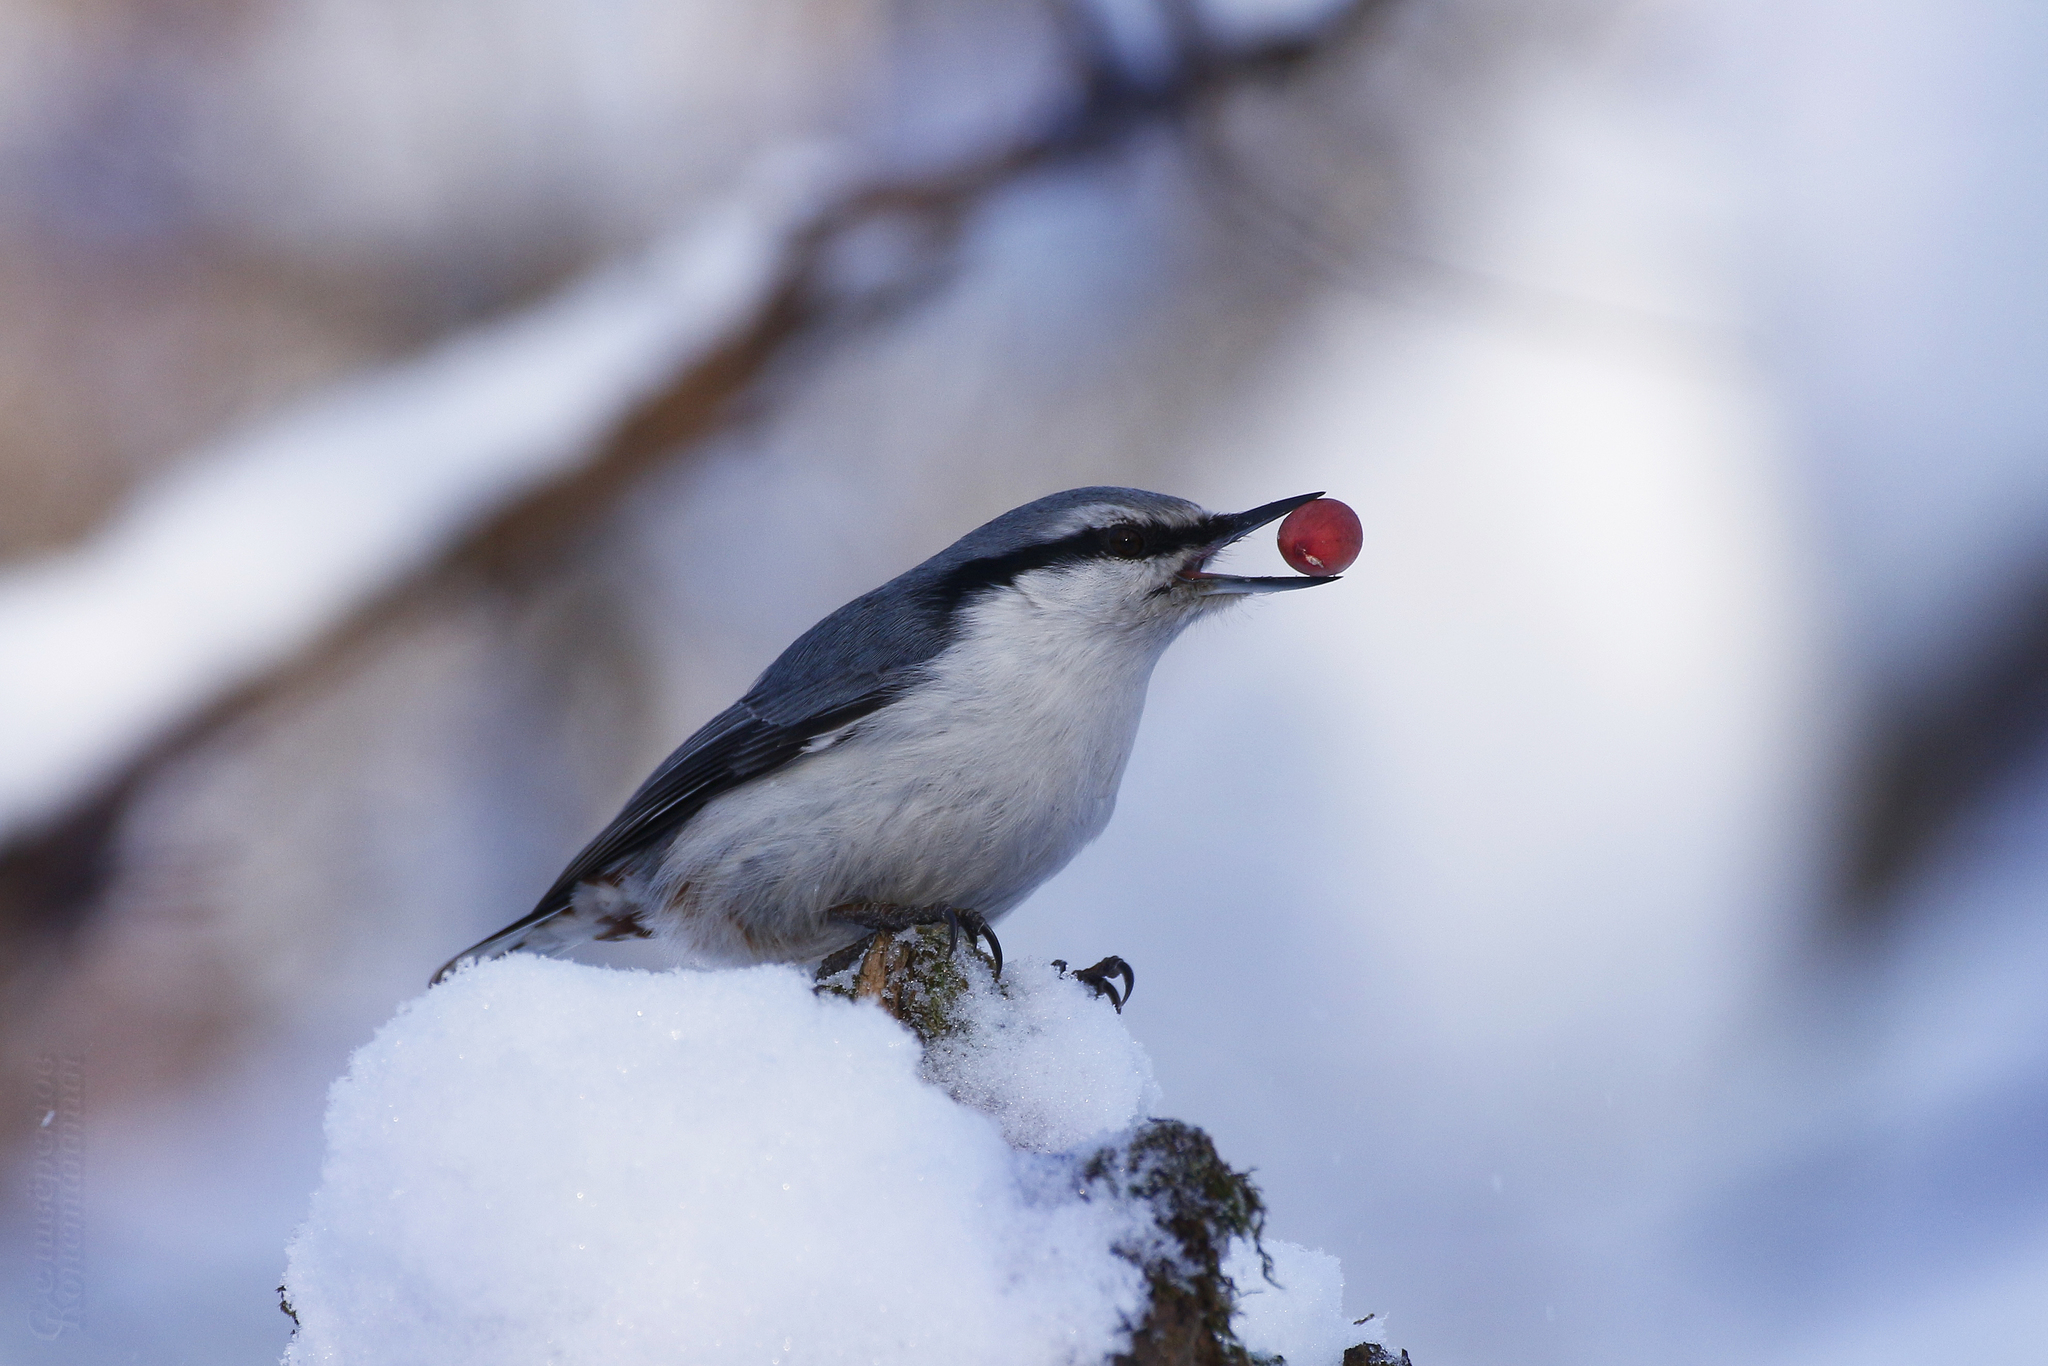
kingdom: Animalia
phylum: Chordata
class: Aves
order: Passeriformes
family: Sittidae
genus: Sitta
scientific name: Sitta europaea
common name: Eurasian nuthatch
